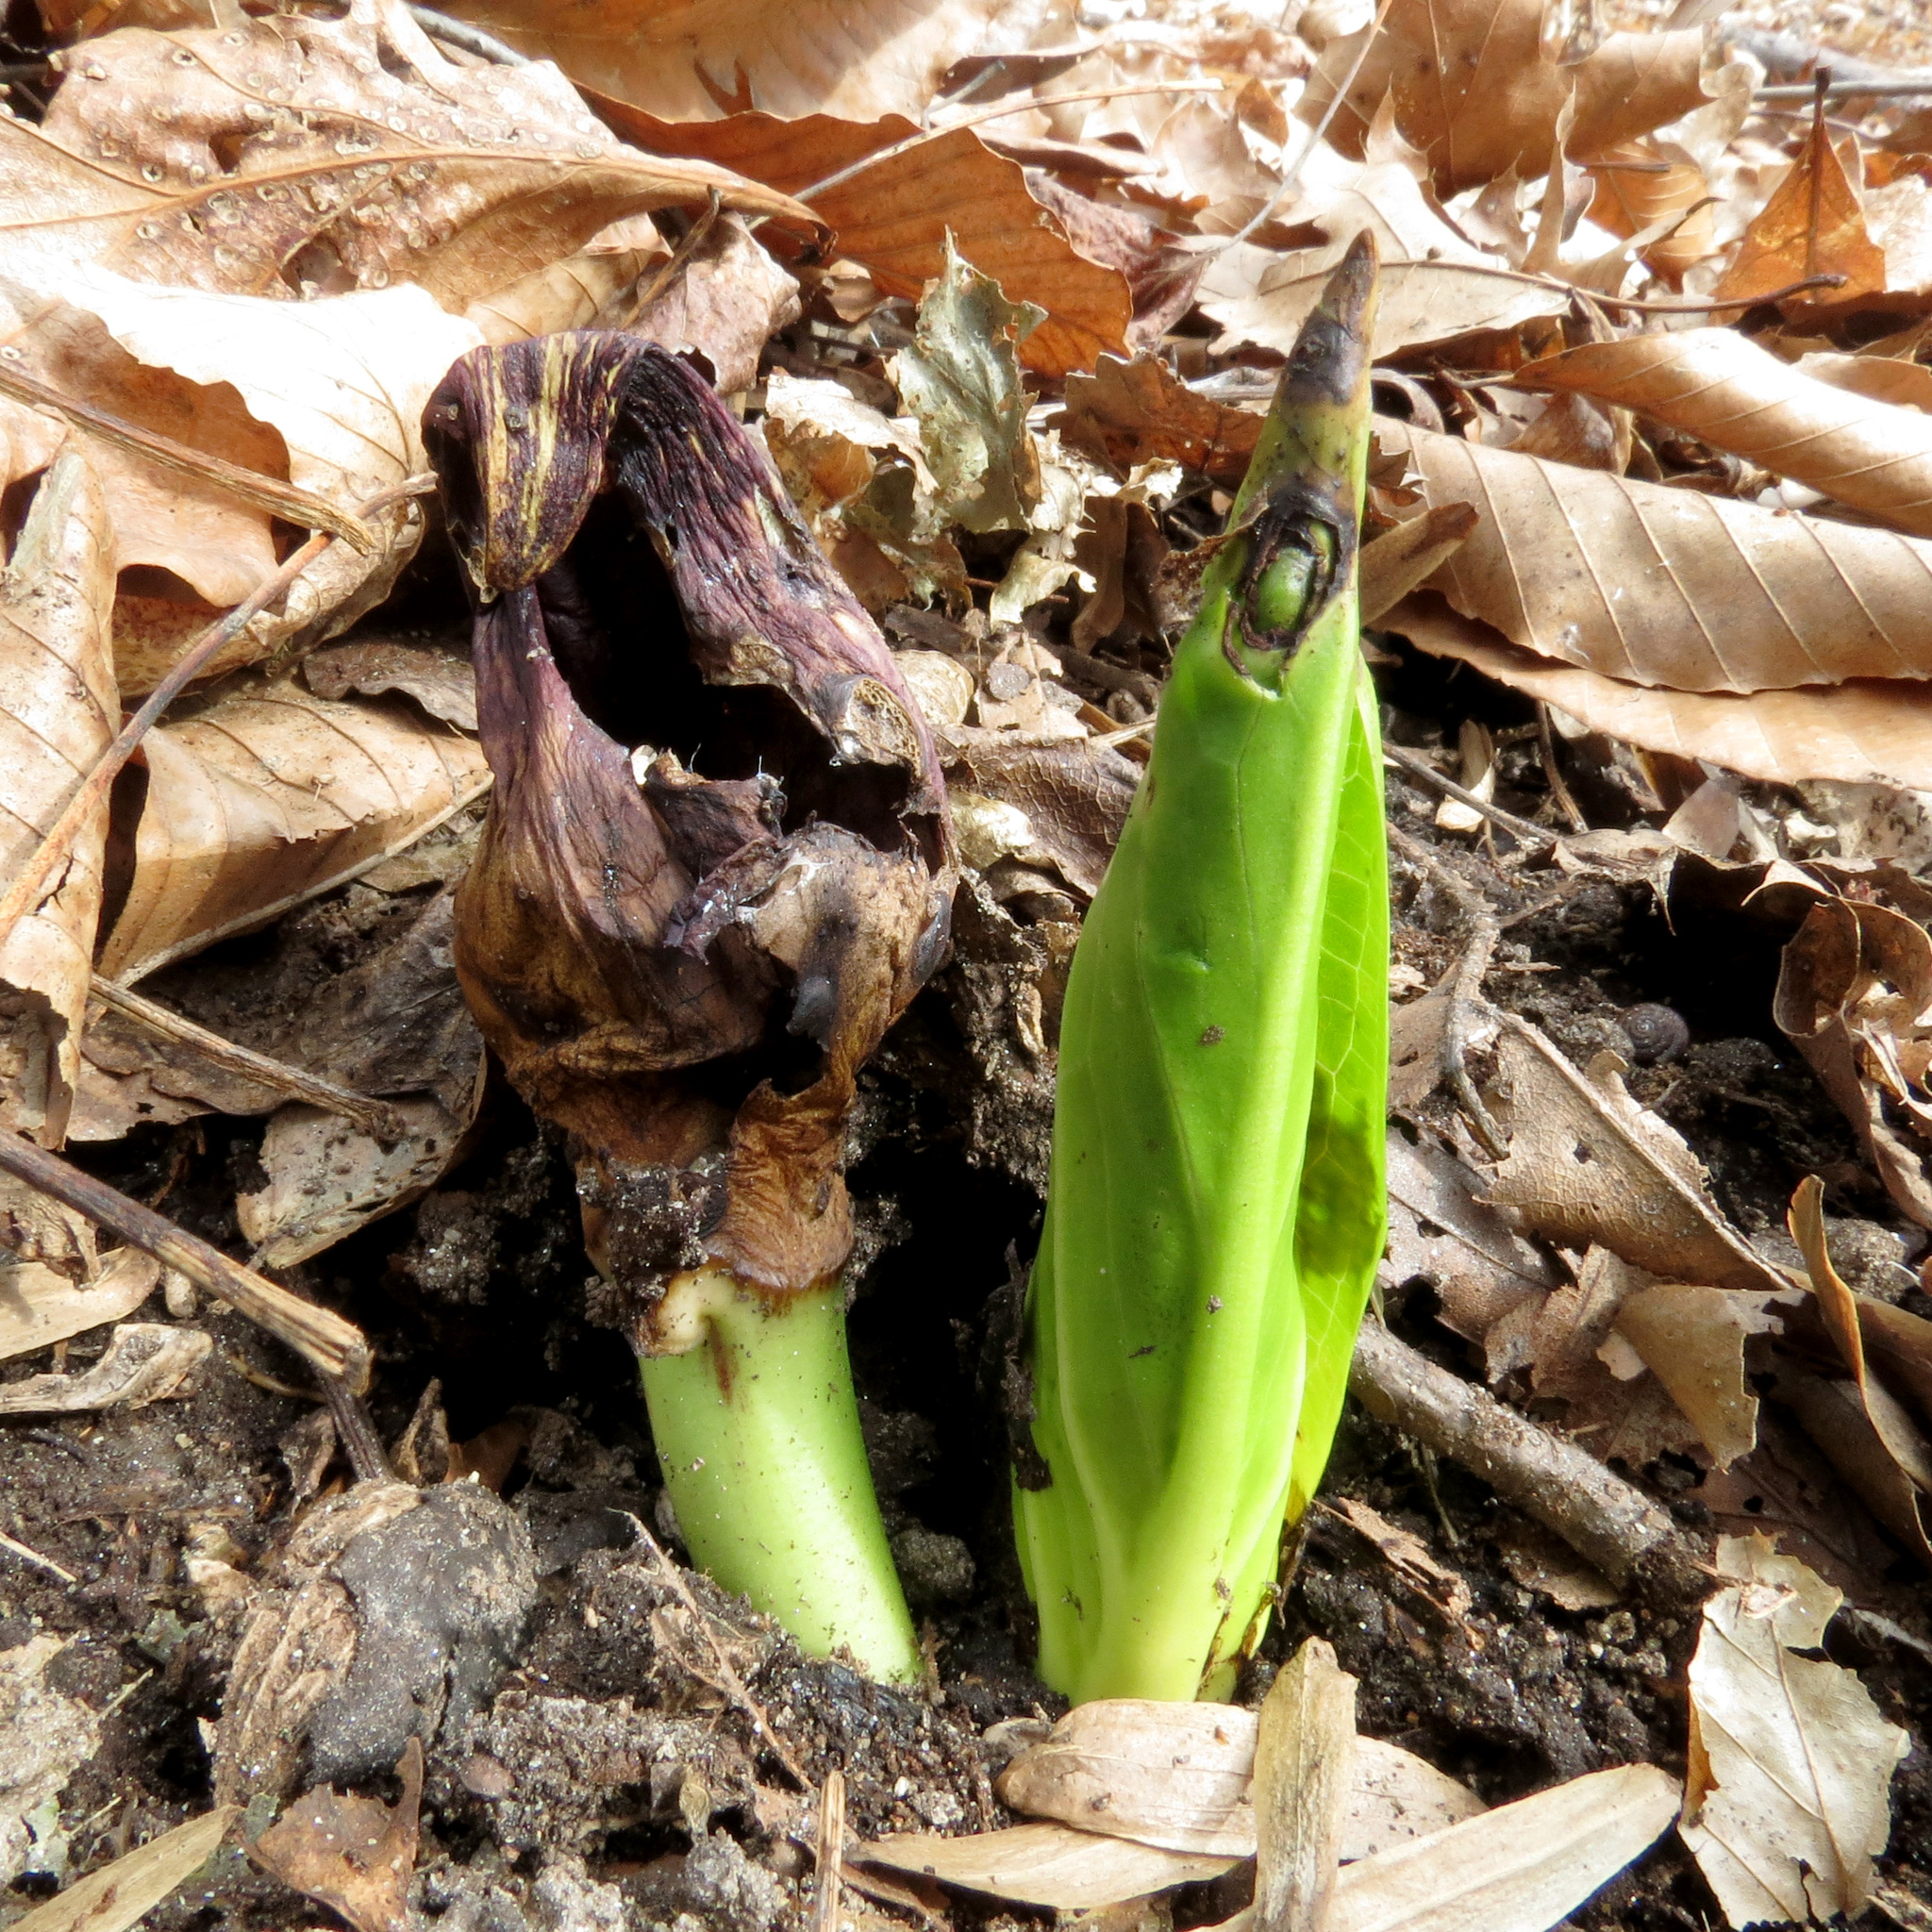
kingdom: Plantae
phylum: Tracheophyta
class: Liliopsida
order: Alismatales
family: Araceae
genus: Symplocarpus
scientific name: Symplocarpus foetidus
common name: Eastern skunk cabbage
